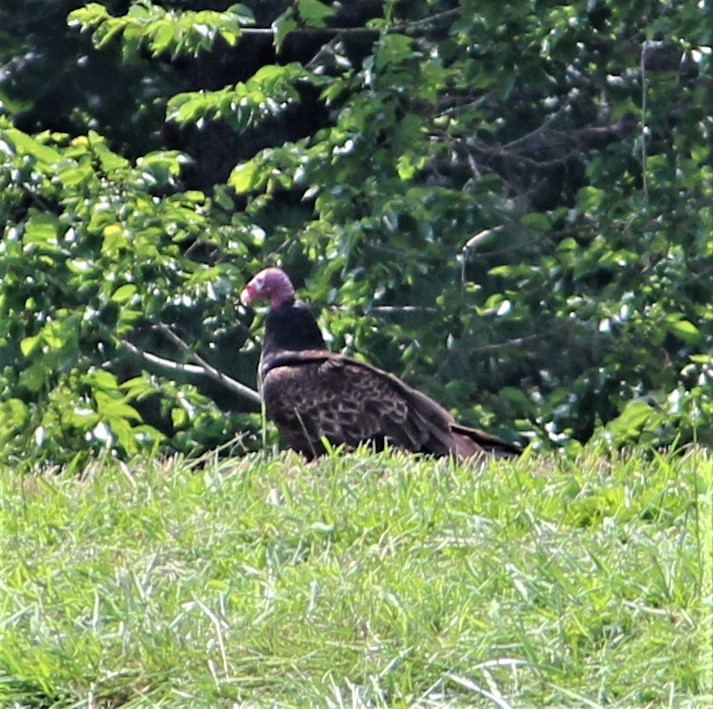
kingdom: Animalia
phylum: Chordata
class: Aves
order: Accipitriformes
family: Cathartidae
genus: Cathartes
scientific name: Cathartes aura
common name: Turkey vulture
